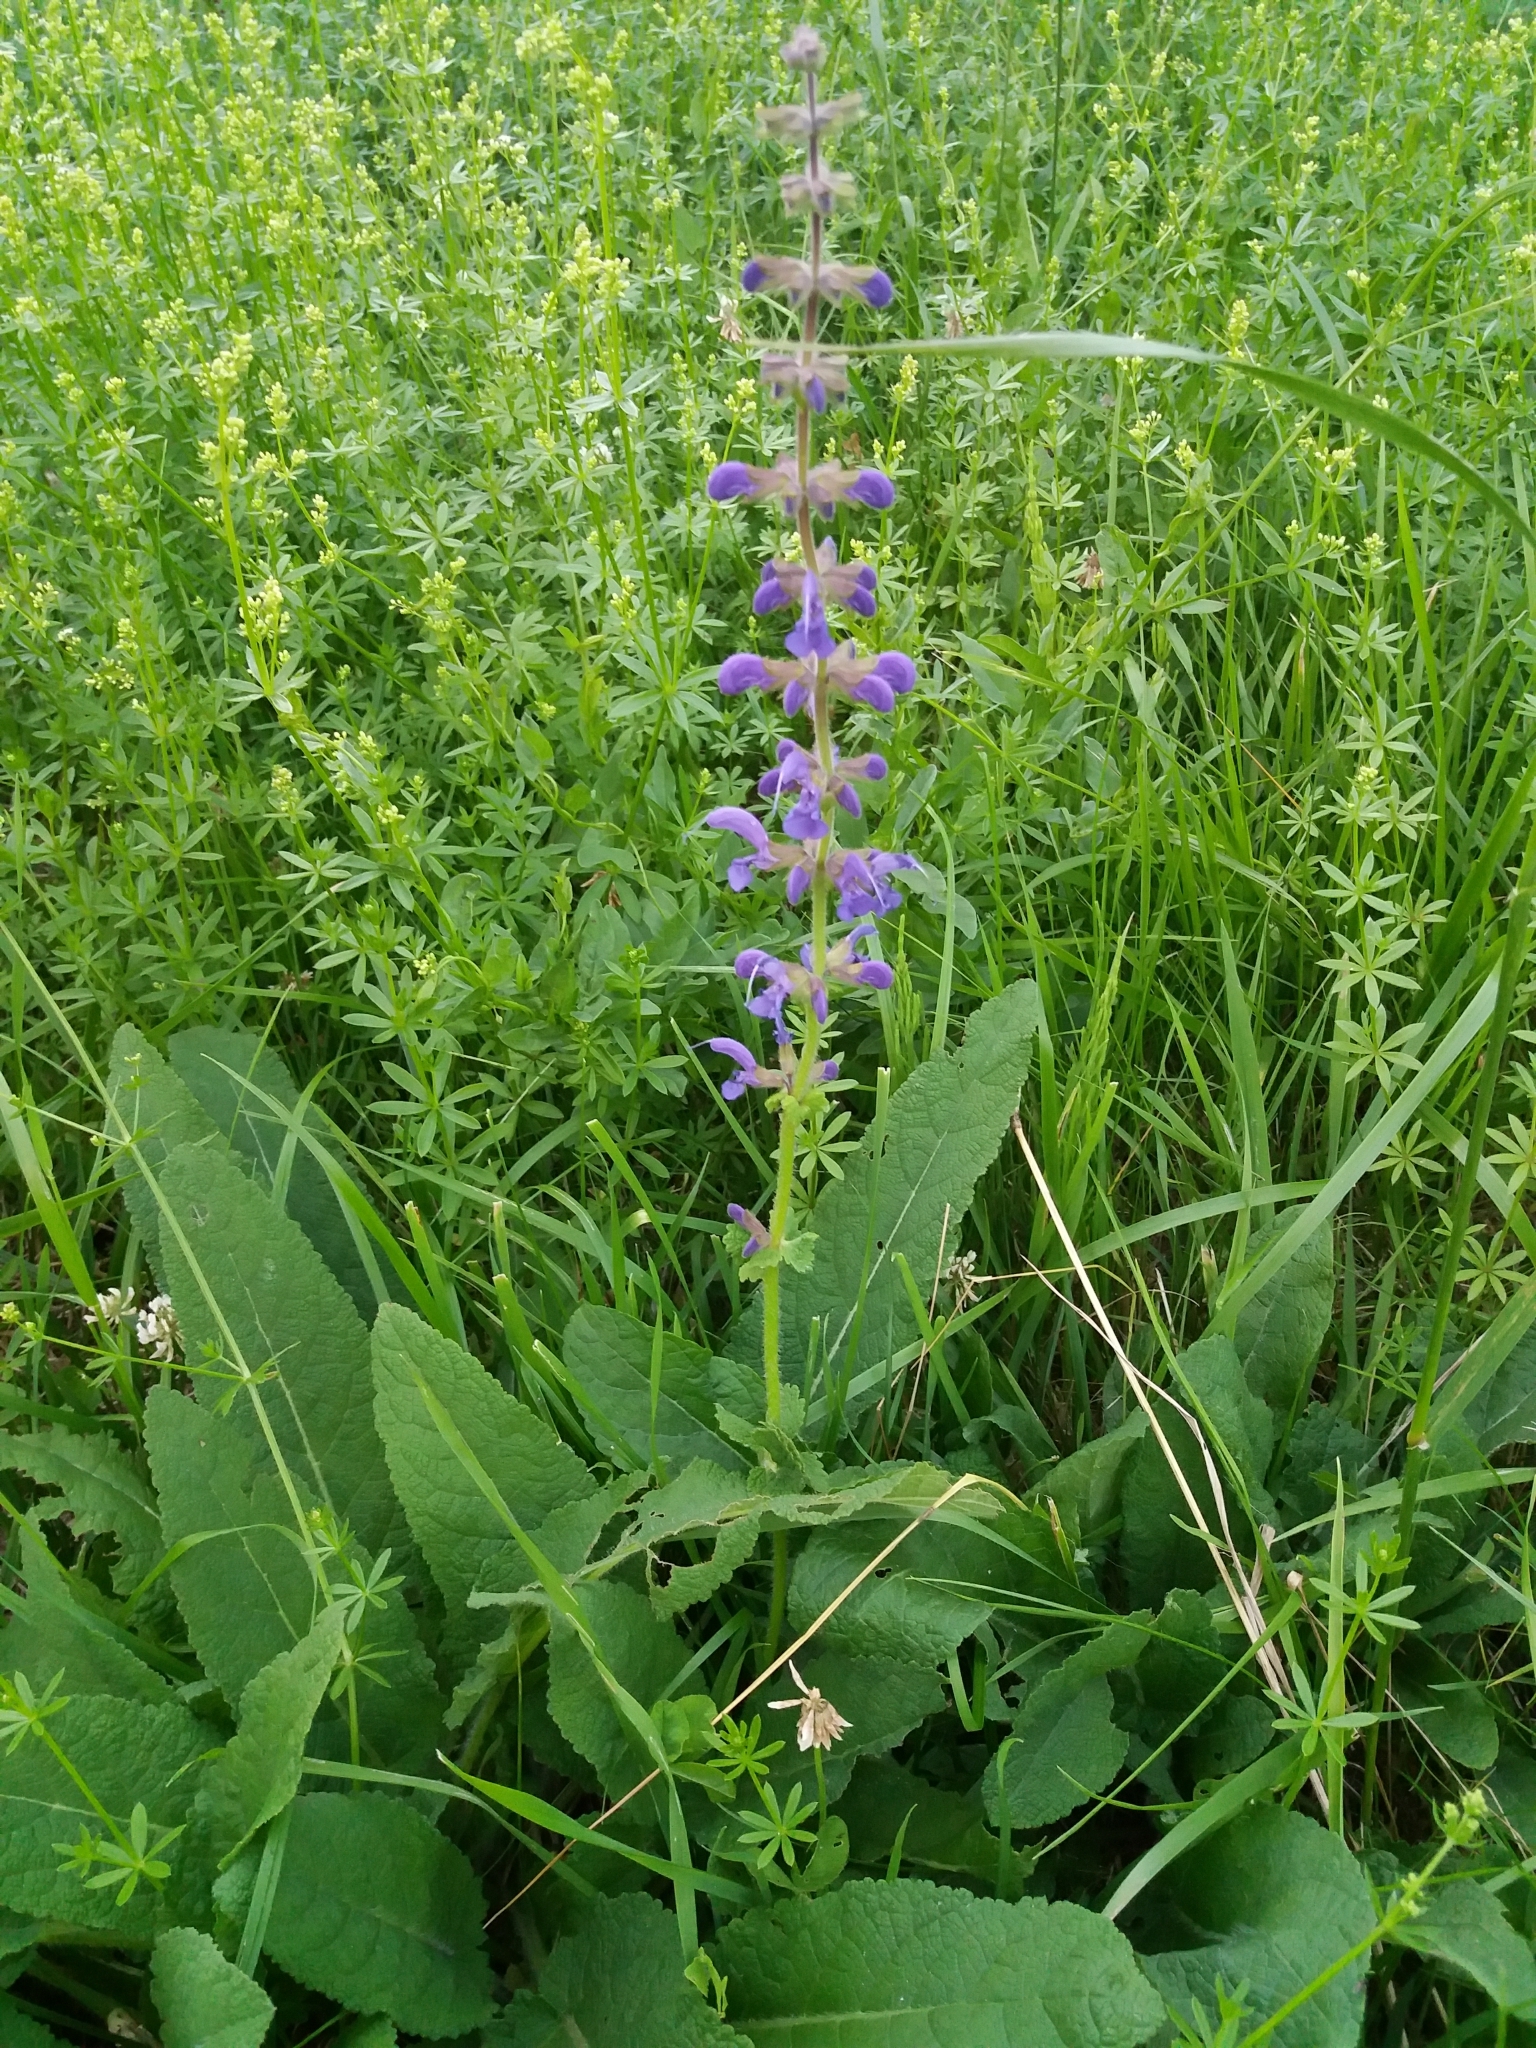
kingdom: Plantae
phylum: Tracheophyta
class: Magnoliopsida
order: Lamiales
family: Lamiaceae
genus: Salvia
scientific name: Salvia pratensis
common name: Meadow sage
